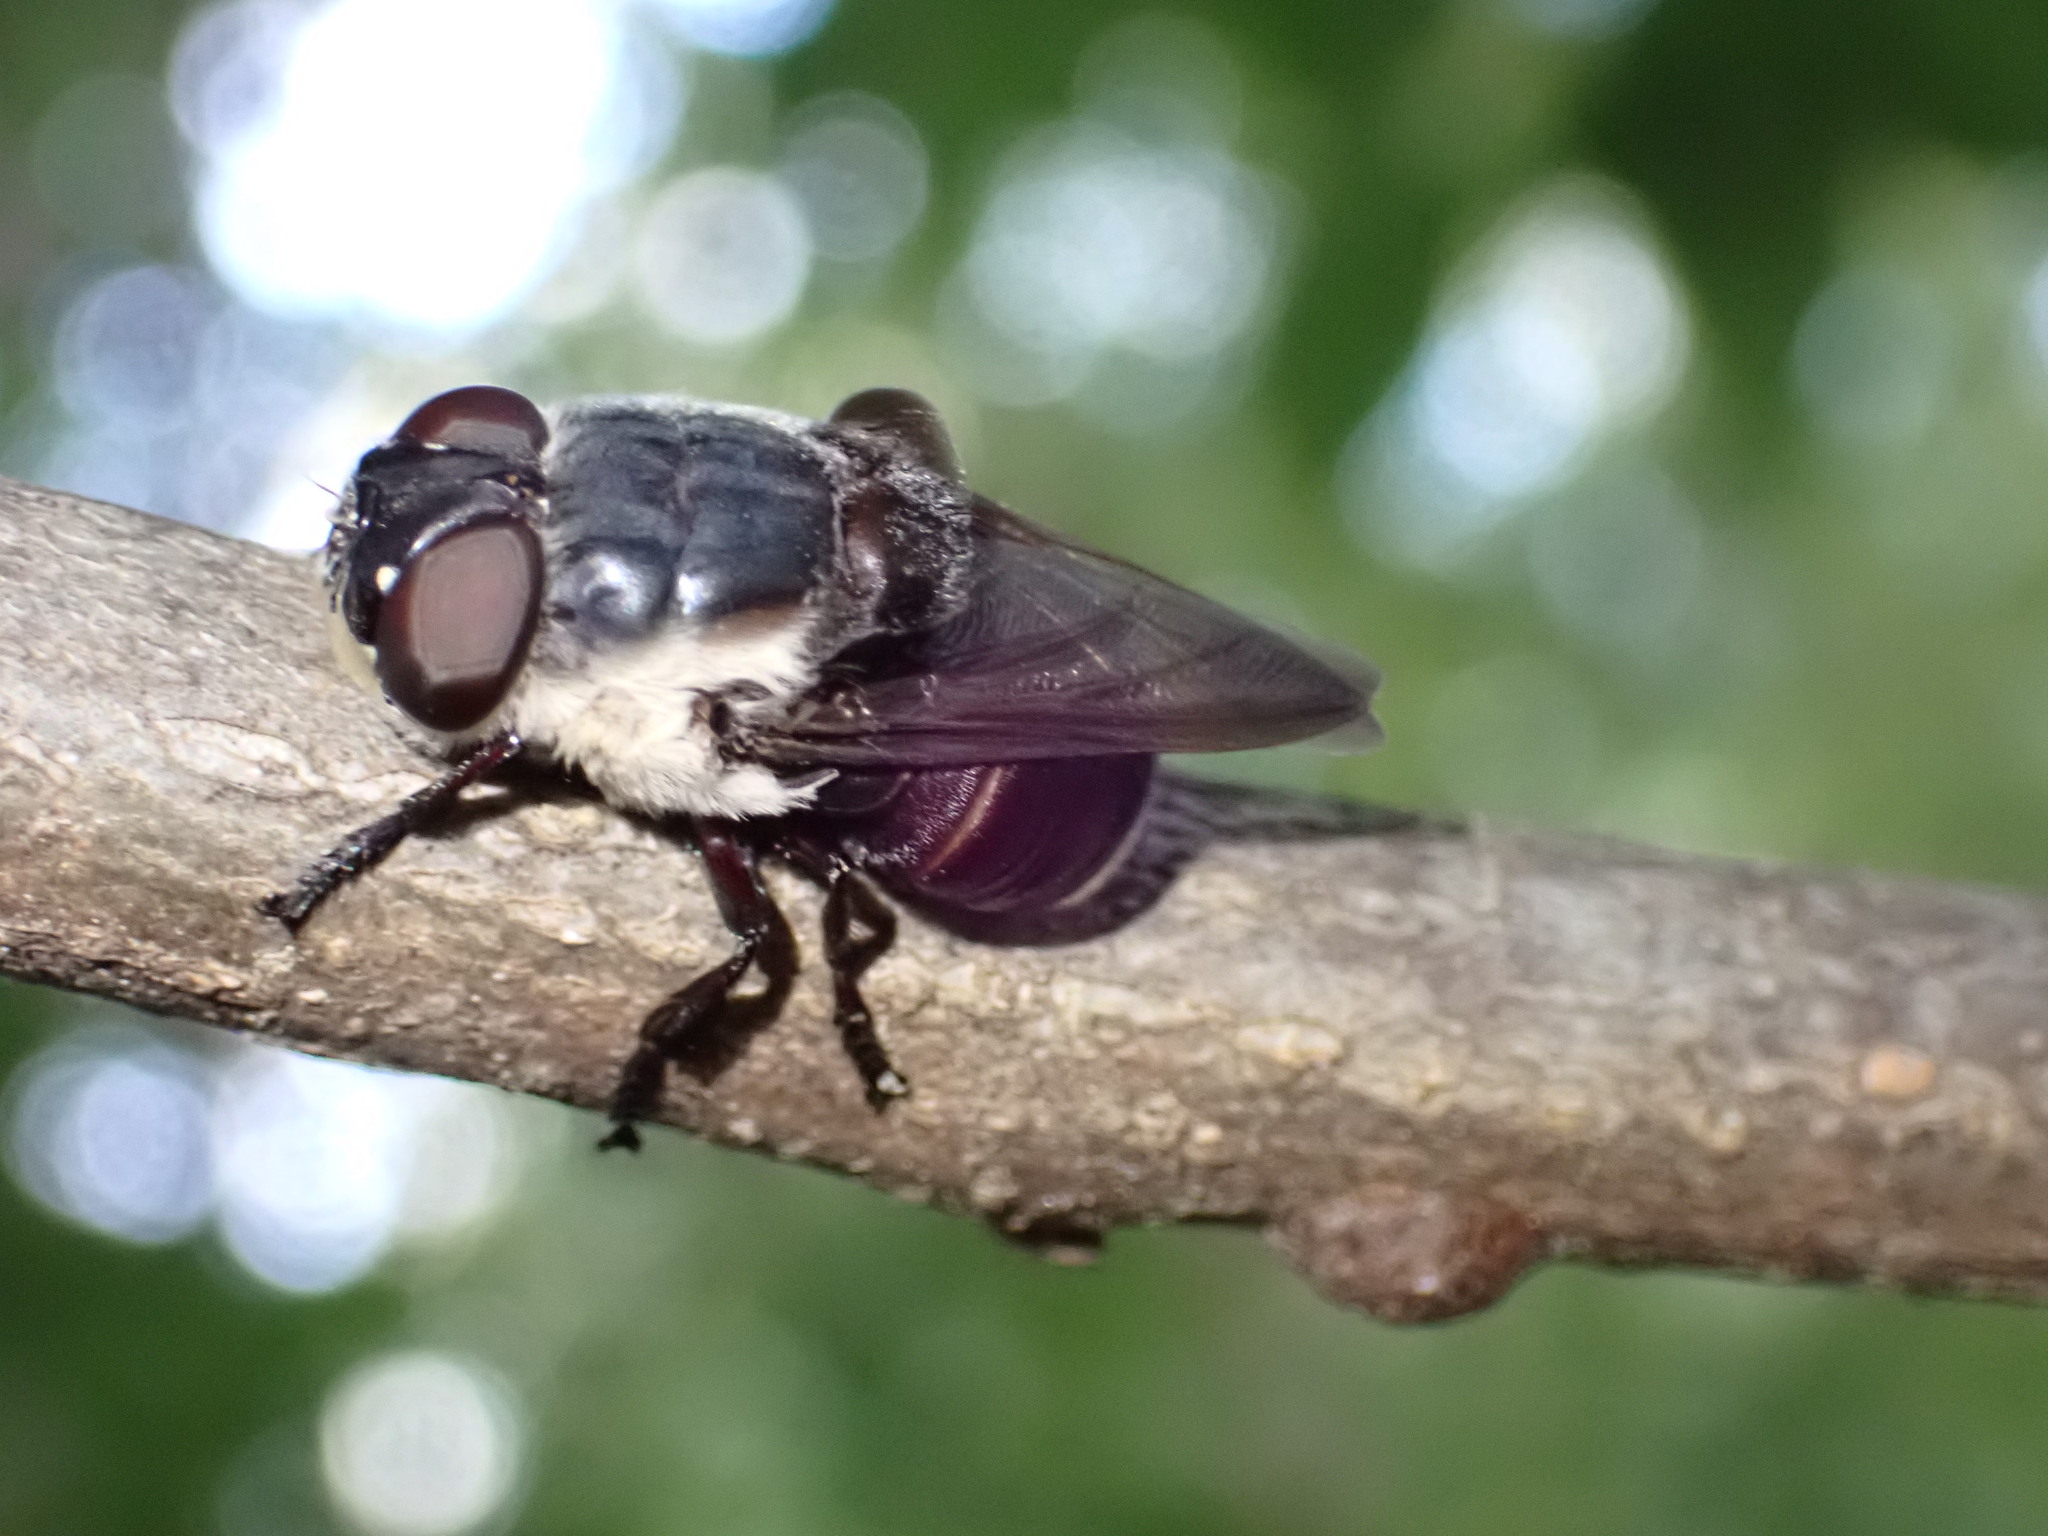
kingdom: Animalia
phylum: Arthropoda
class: Insecta
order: Diptera
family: Oestridae
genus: Cuterebra
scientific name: Cuterebra fontinella
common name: Mouse bot fly
